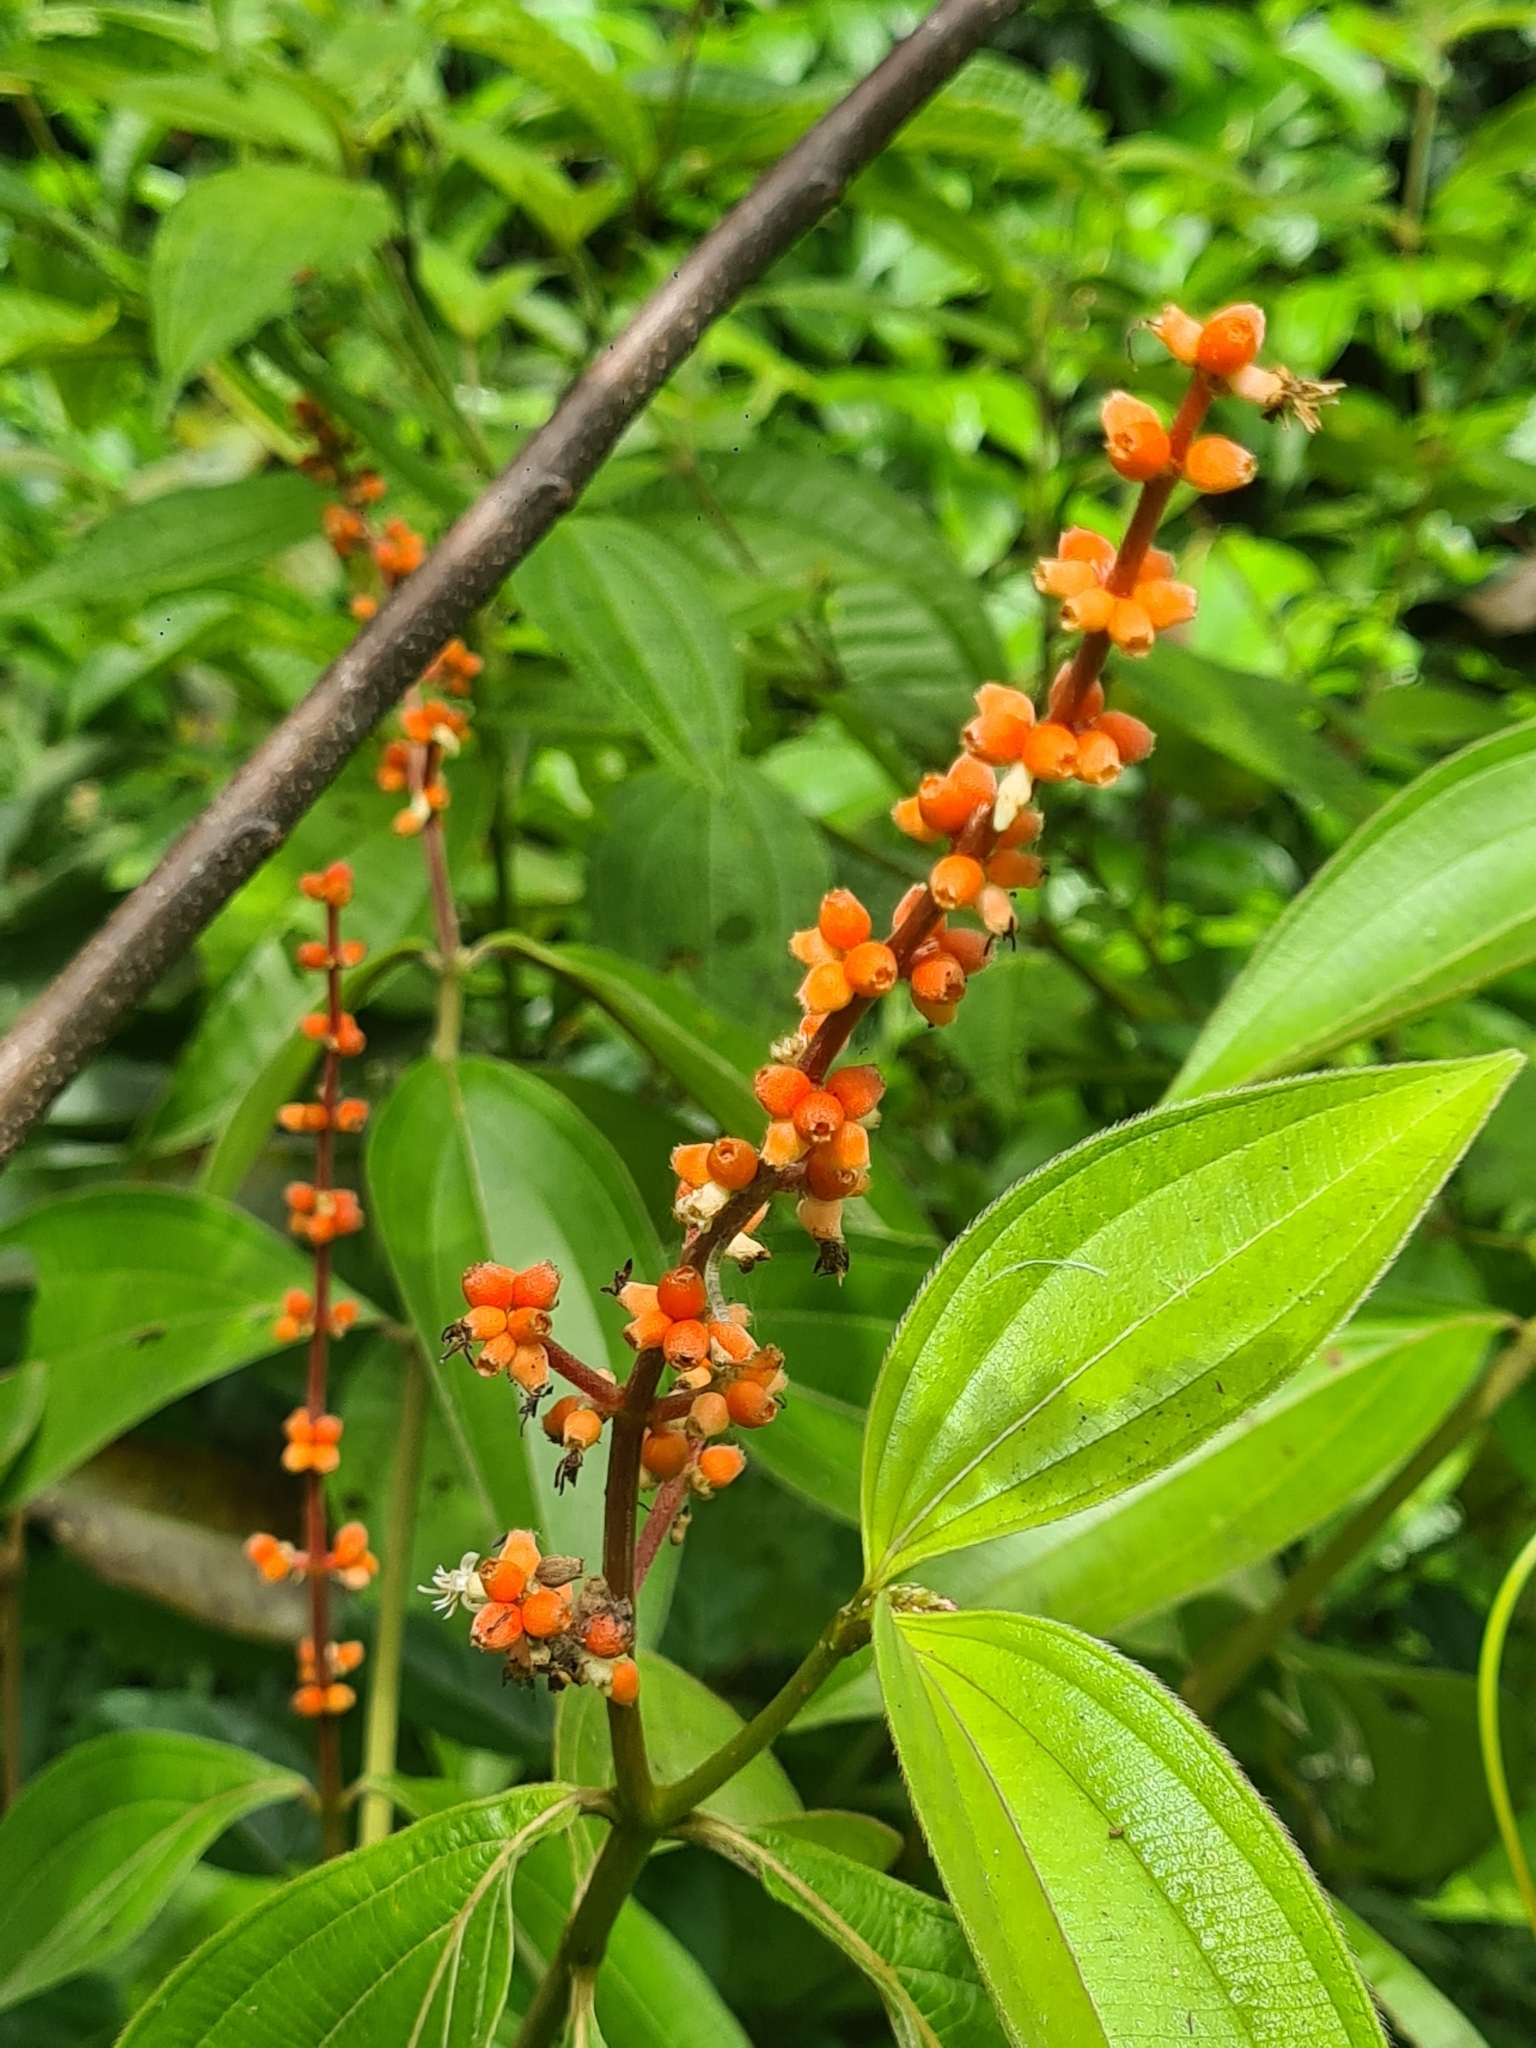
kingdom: Plantae
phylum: Tracheophyta
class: Magnoliopsida
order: Myrtales
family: Melastomataceae
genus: Miconia
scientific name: Miconia nervosa
